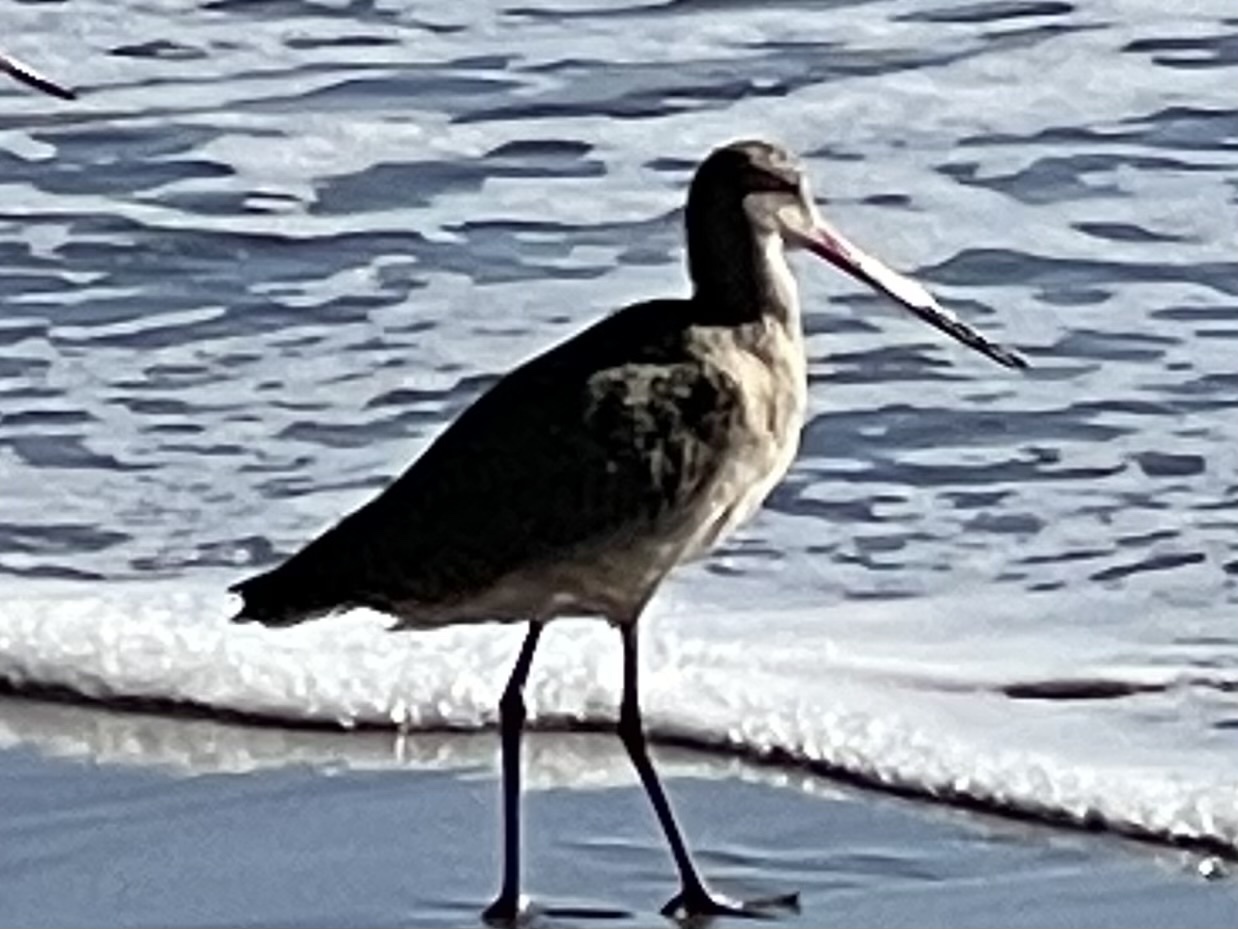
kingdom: Animalia
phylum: Chordata
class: Aves
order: Charadriiformes
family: Scolopacidae
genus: Limosa
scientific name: Limosa fedoa
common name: Marbled godwit
